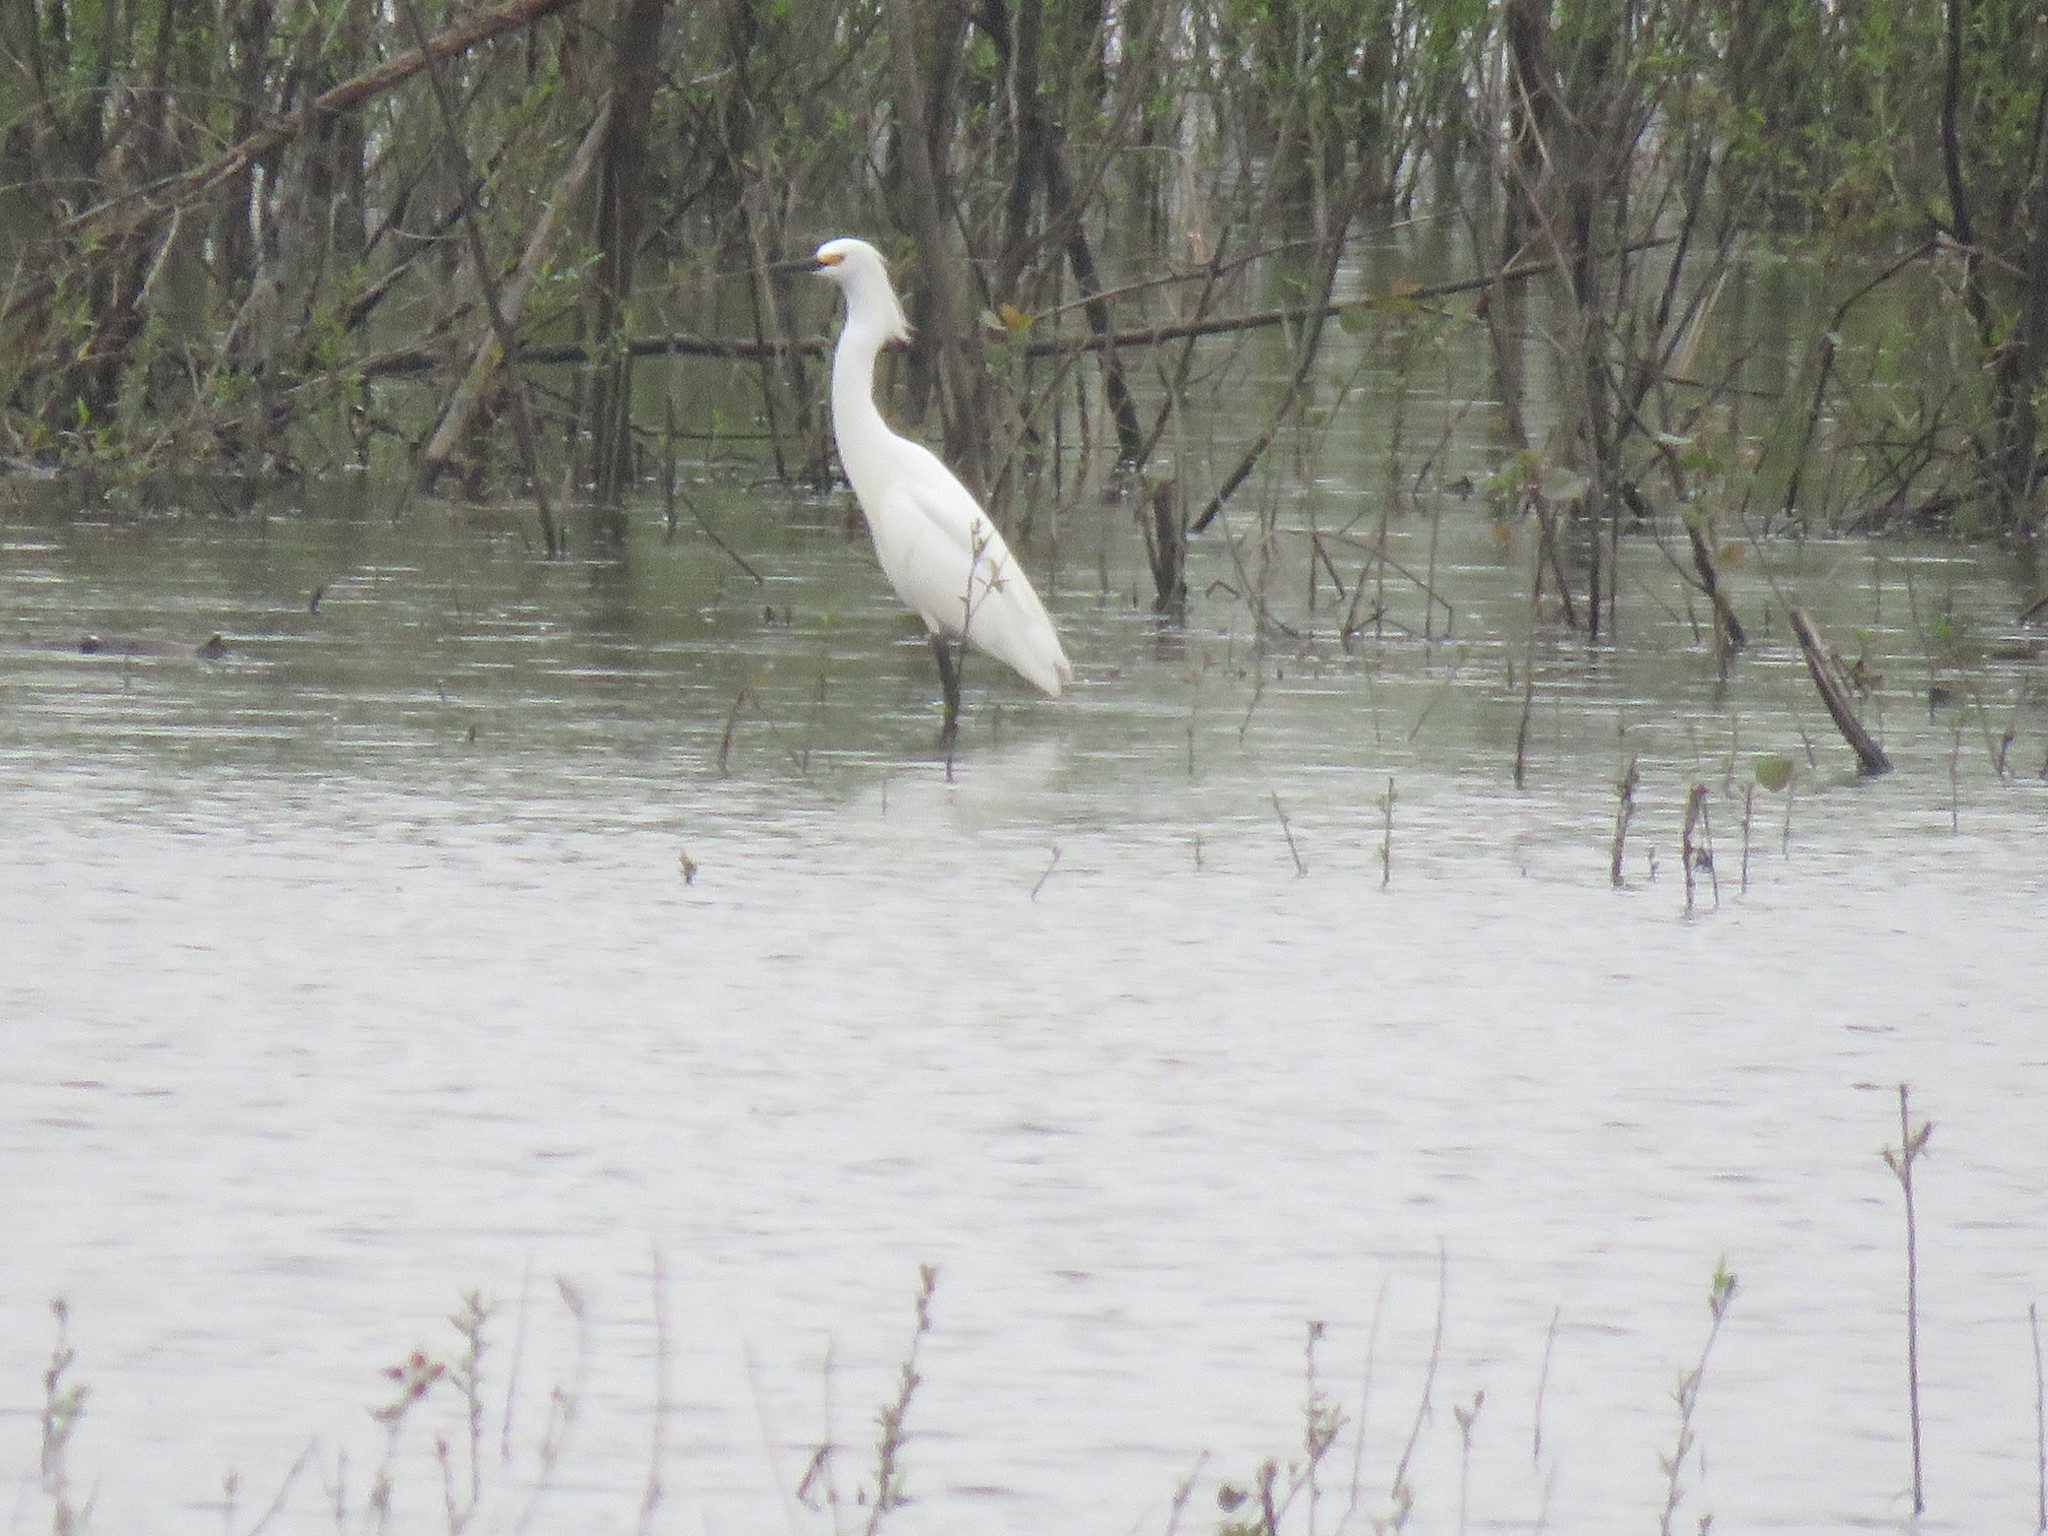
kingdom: Animalia
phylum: Chordata
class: Aves
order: Pelecaniformes
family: Ardeidae
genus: Egretta
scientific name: Egretta thula
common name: Snowy egret
